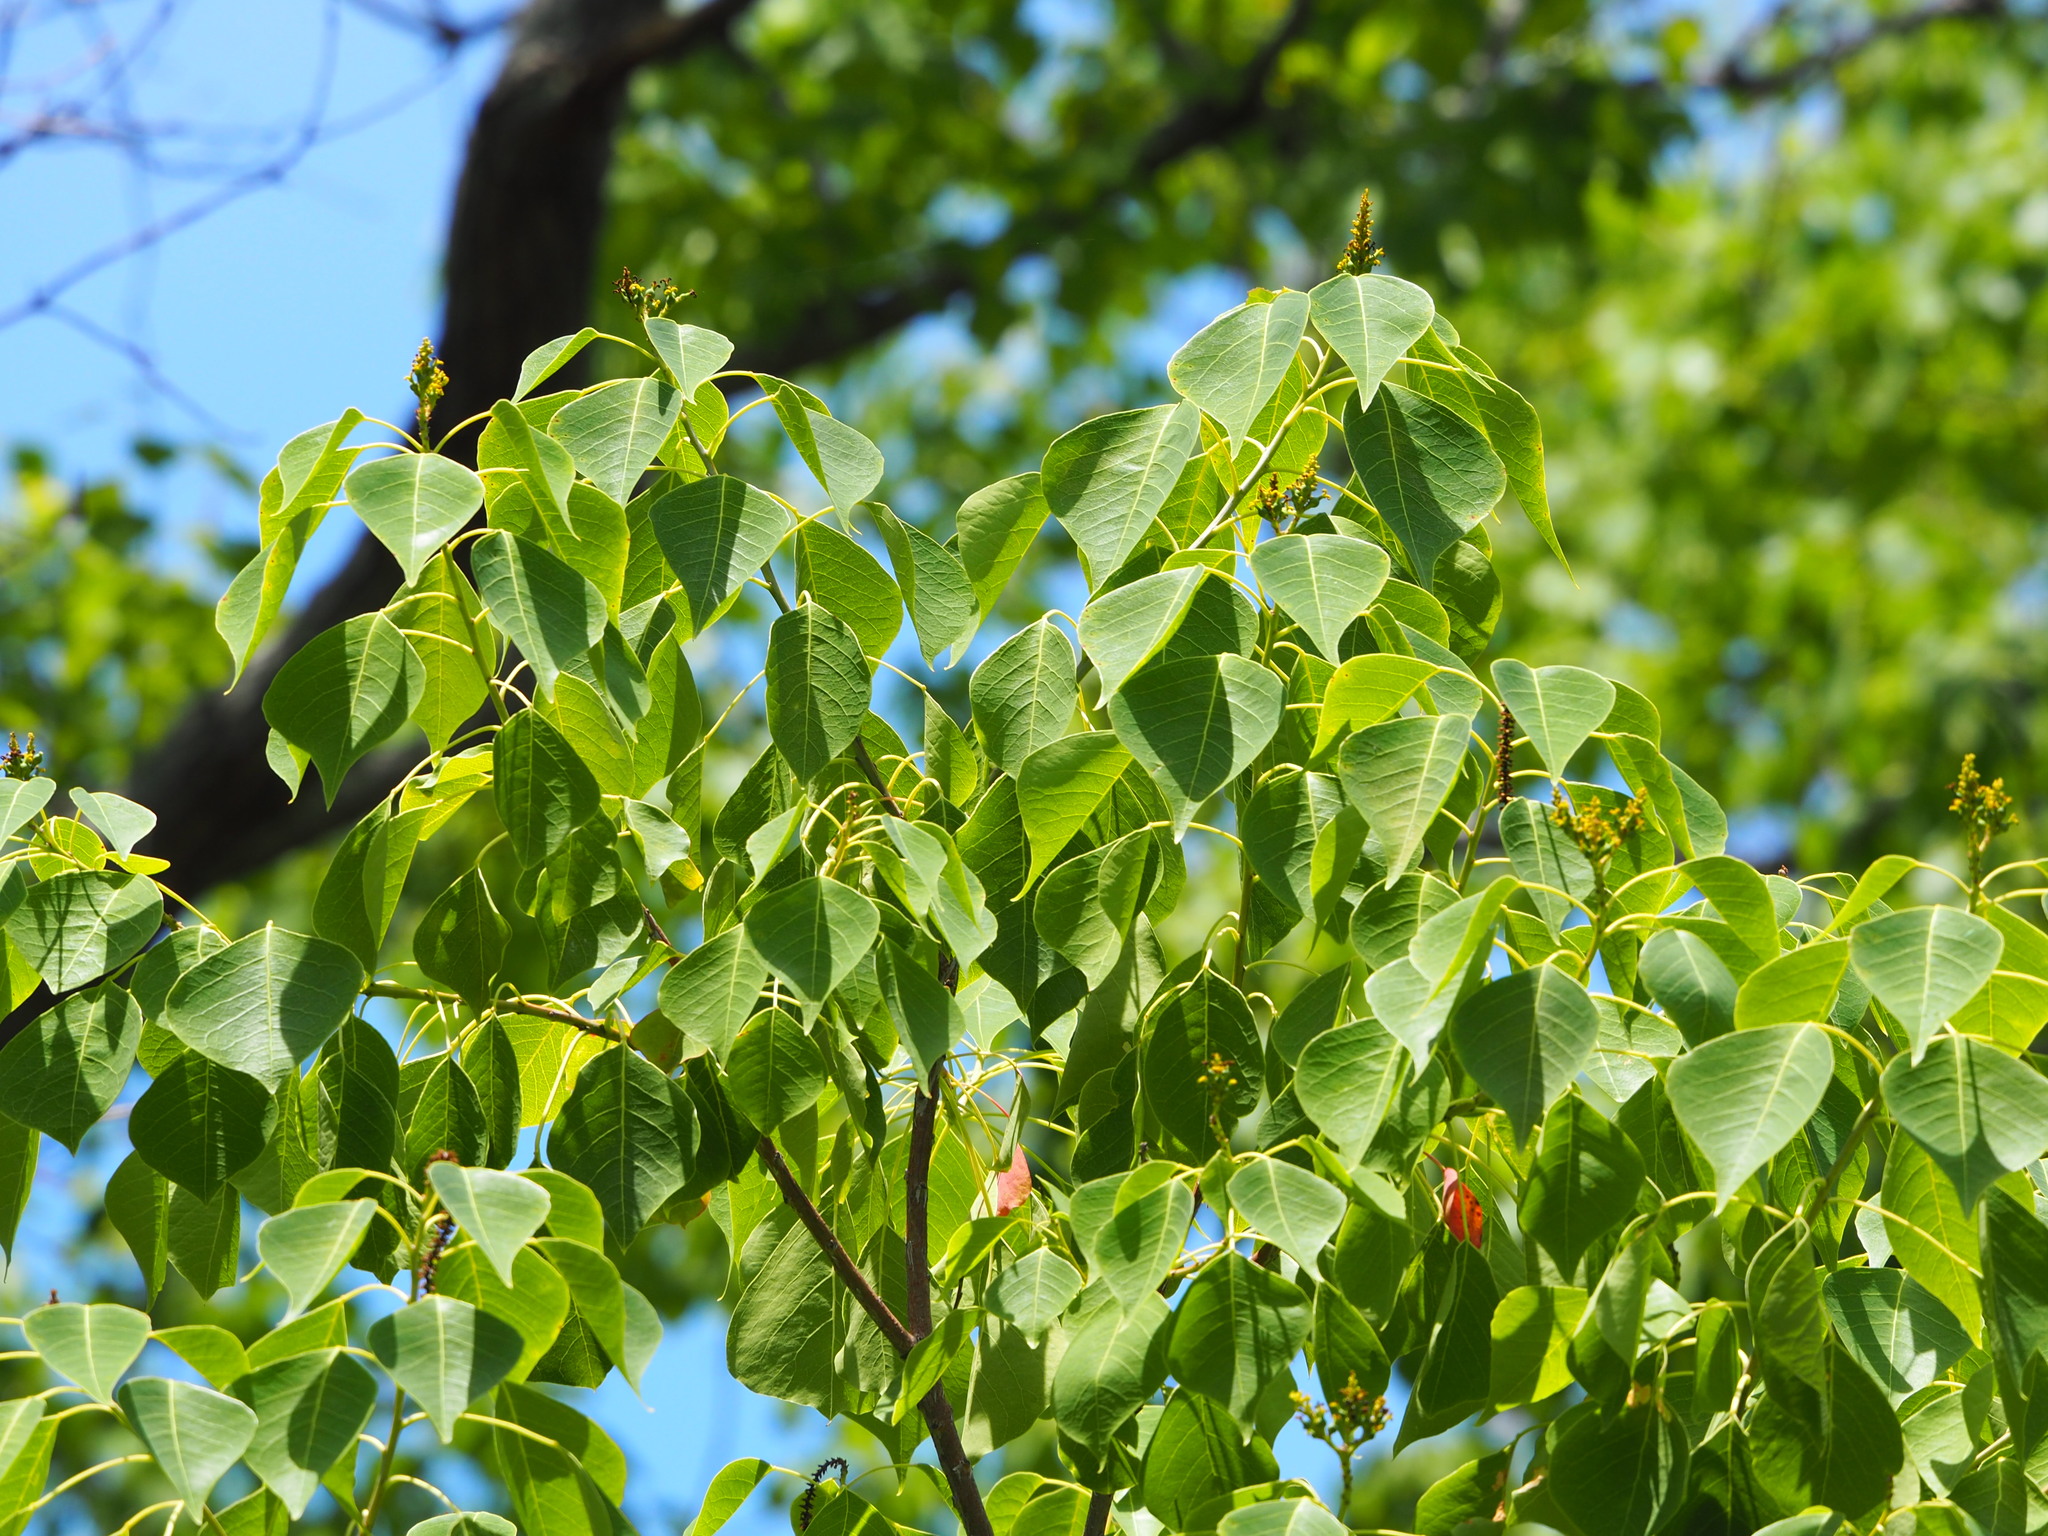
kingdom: Plantae
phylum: Tracheophyta
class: Magnoliopsida
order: Malpighiales
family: Euphorbiaceae
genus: Triadica
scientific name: Triadica sebifera
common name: Chinese tallow
